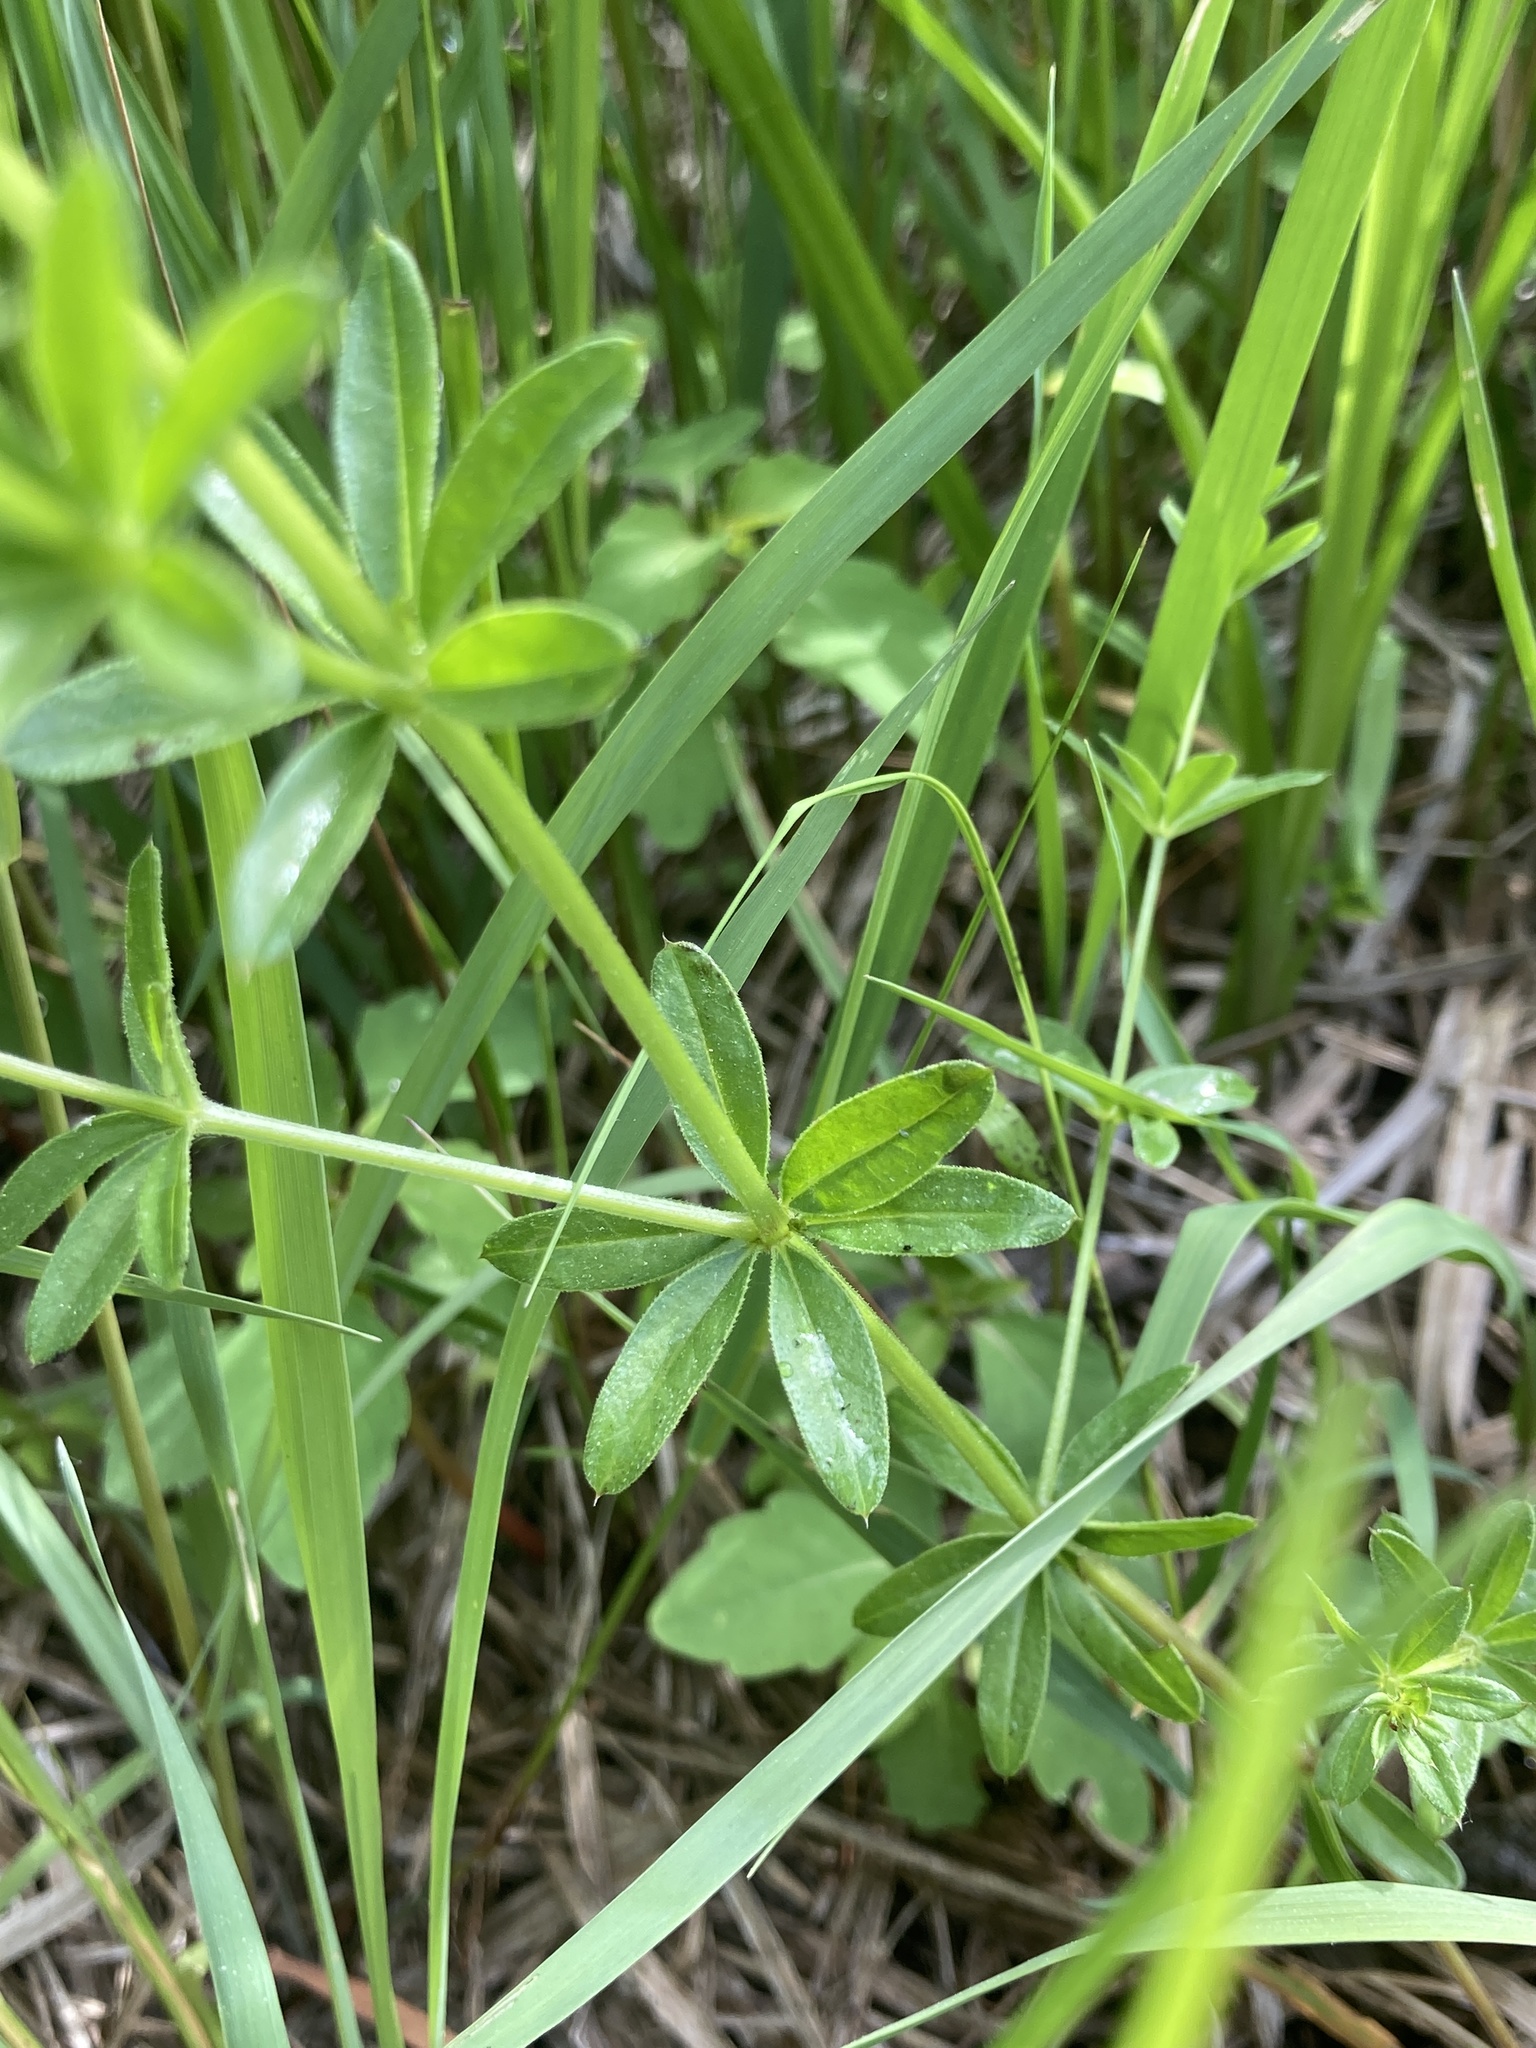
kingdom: Plantae
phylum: Tracheophyta
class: Magnoliopsida
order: Gentianales
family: Rubiaceae
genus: Galium
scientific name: Galium asprellum
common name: Rough bedstraw
